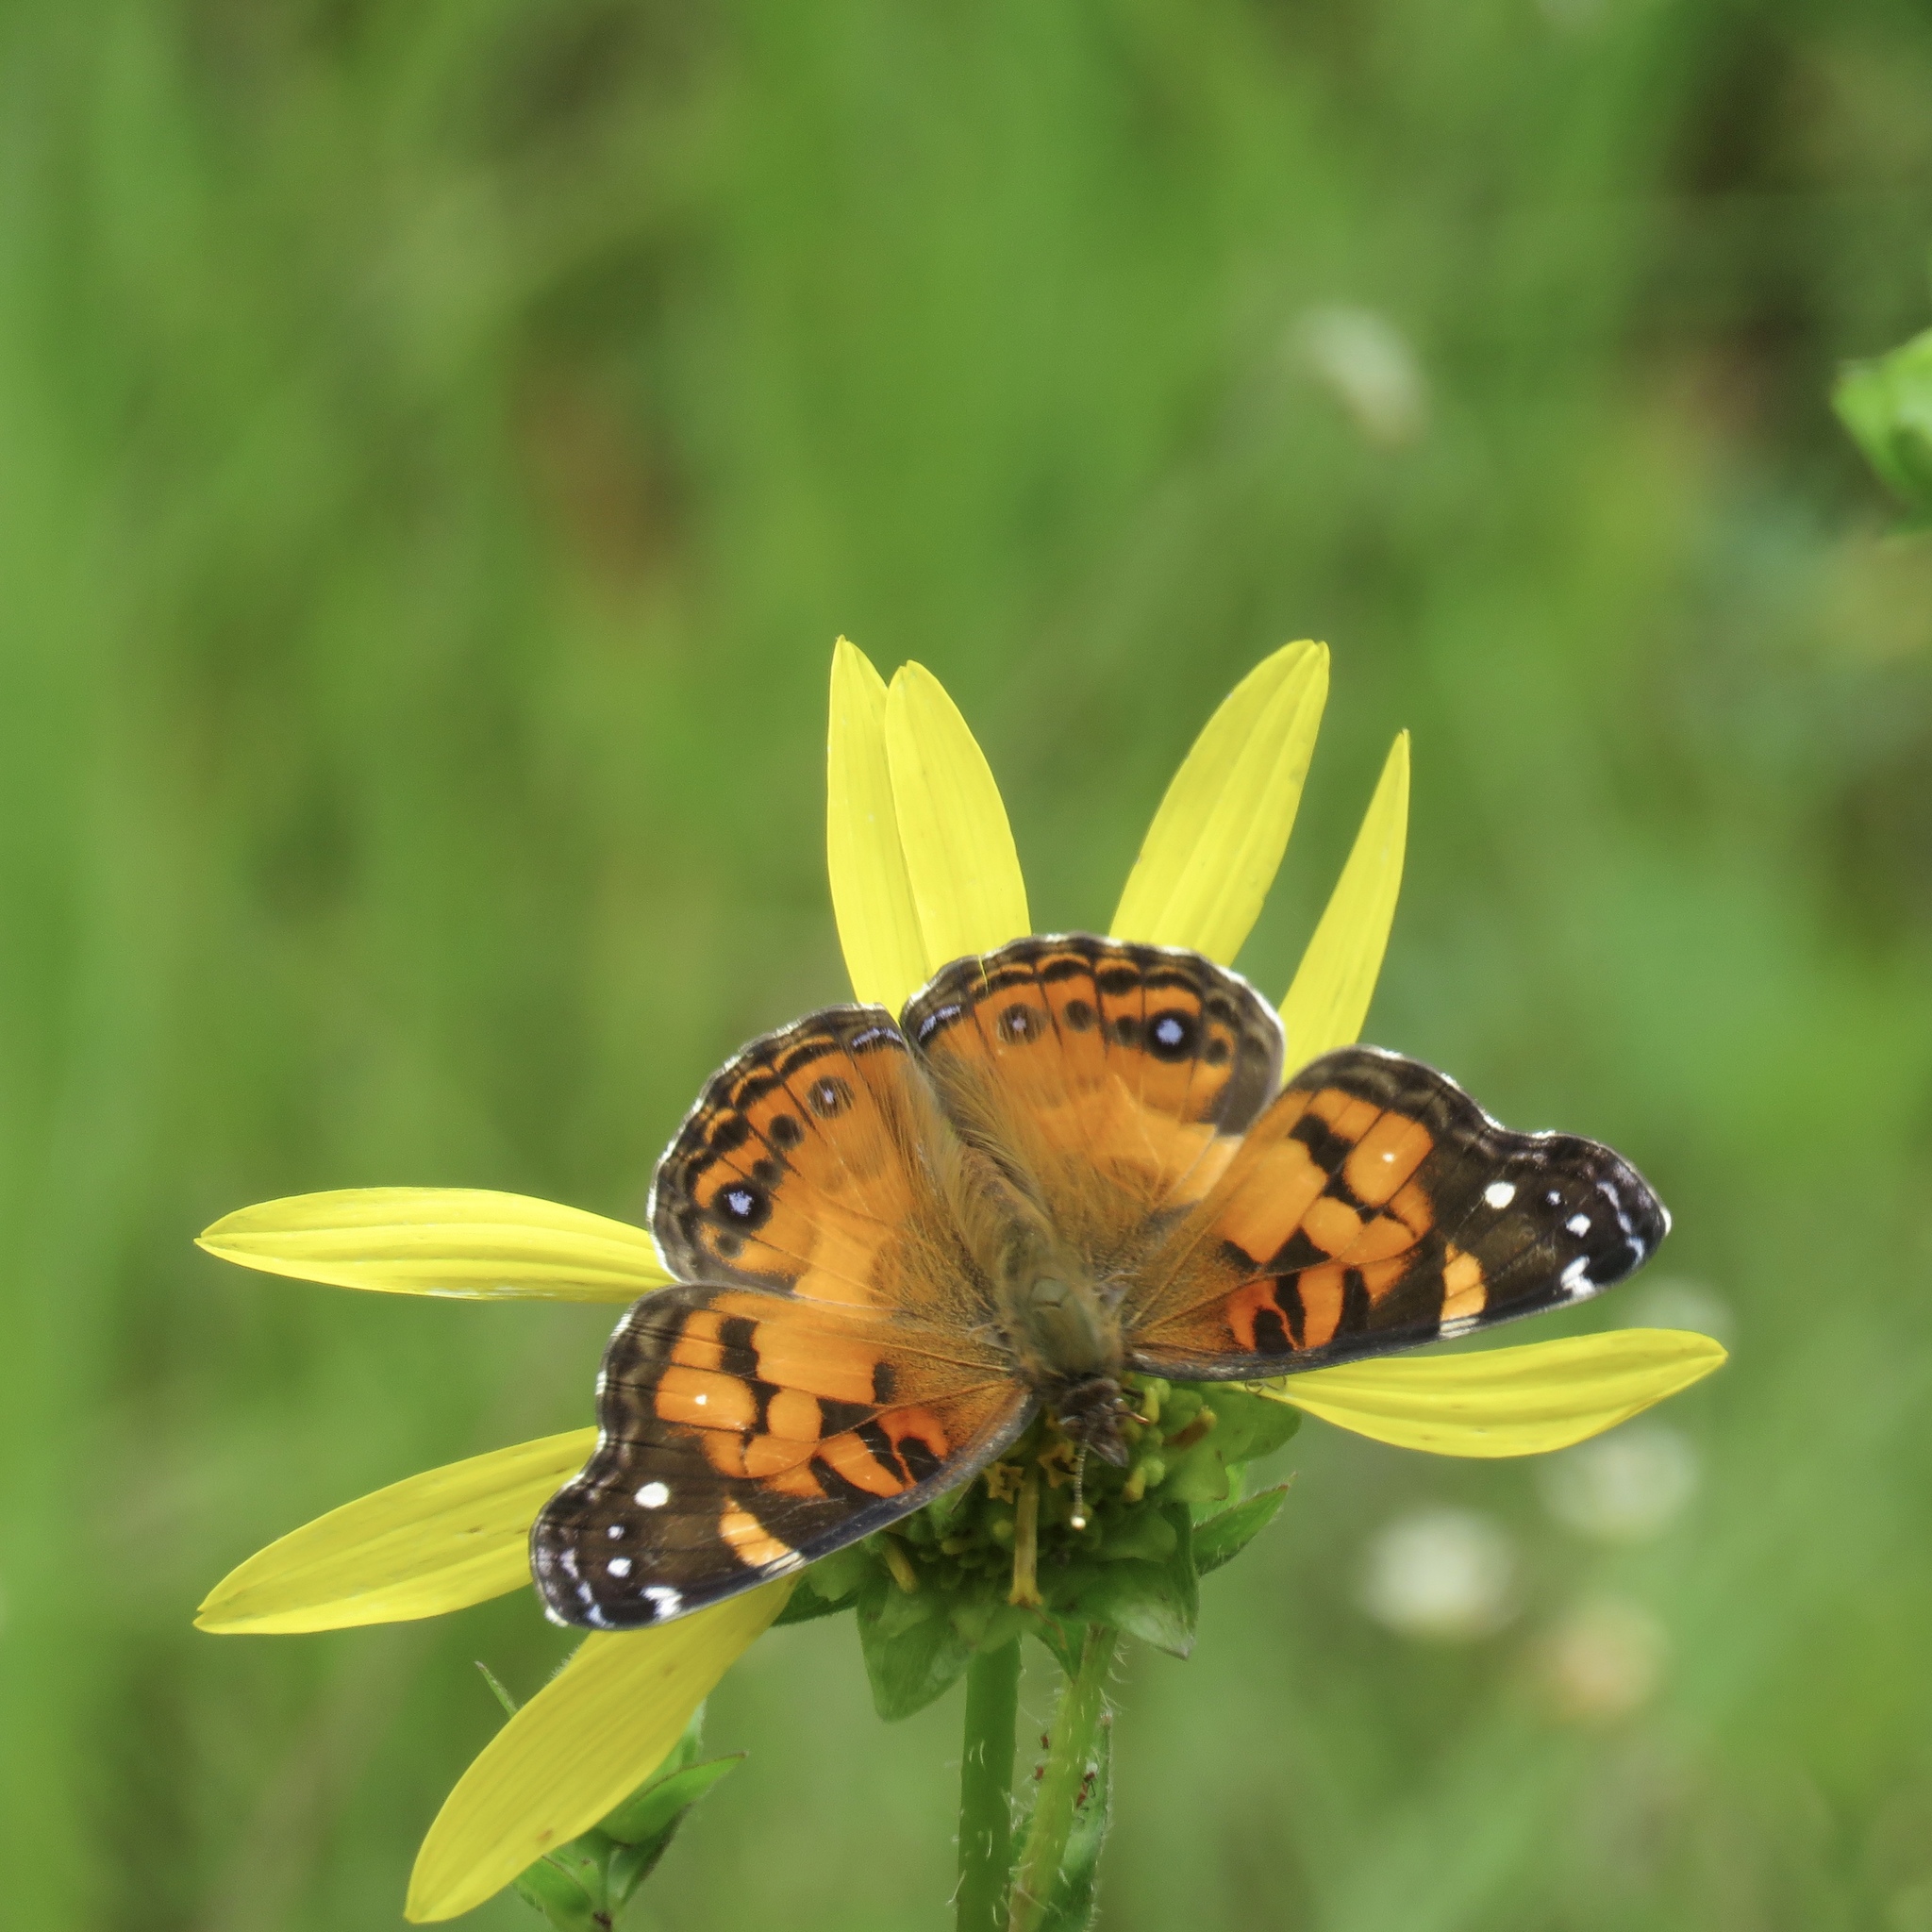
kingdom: Animalia
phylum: Arthropoda
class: Insecta
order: Lepidoptera
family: Nymphalidae
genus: Vanessa
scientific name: Vanessa virginiensis
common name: American lady
